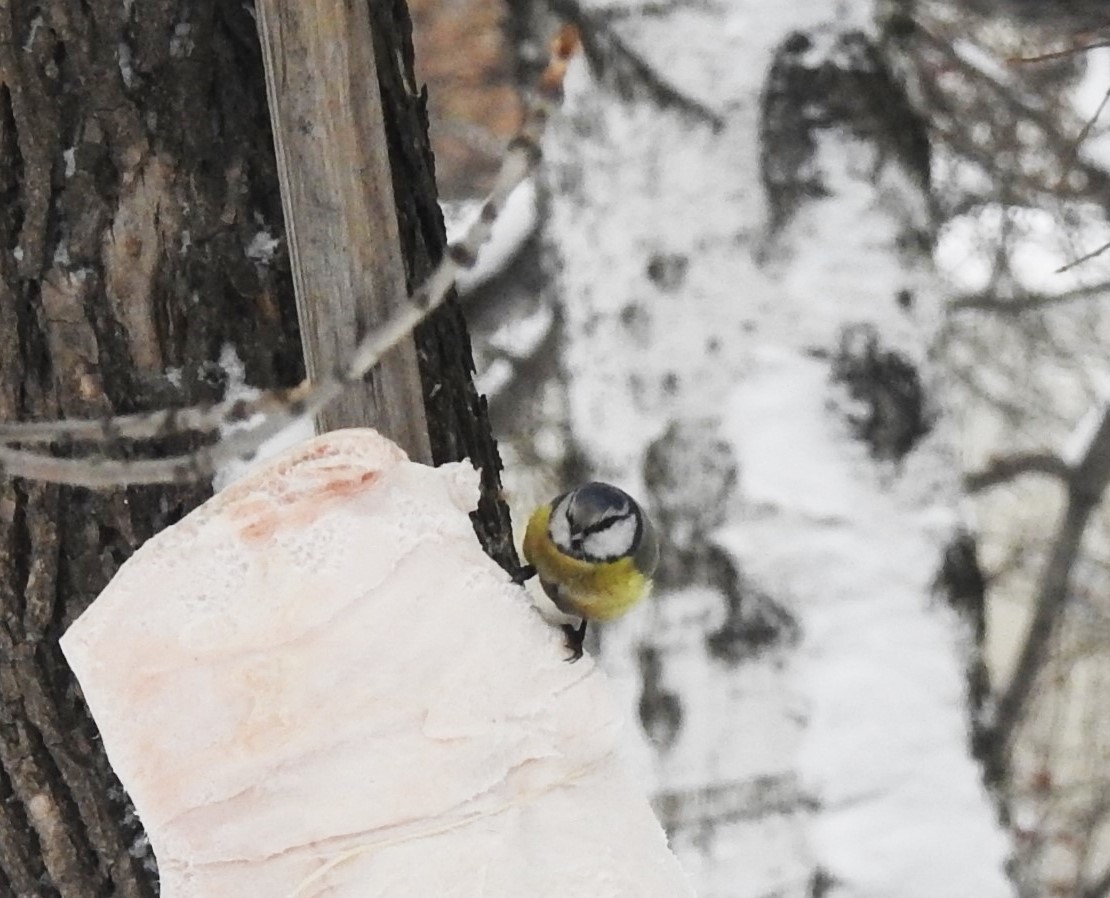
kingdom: Animalia
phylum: Chordata
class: Aves
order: Passeriformes
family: Paridae
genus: Cyanistes
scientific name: Cyanistes caeruleus
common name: Eurasian blue tit
